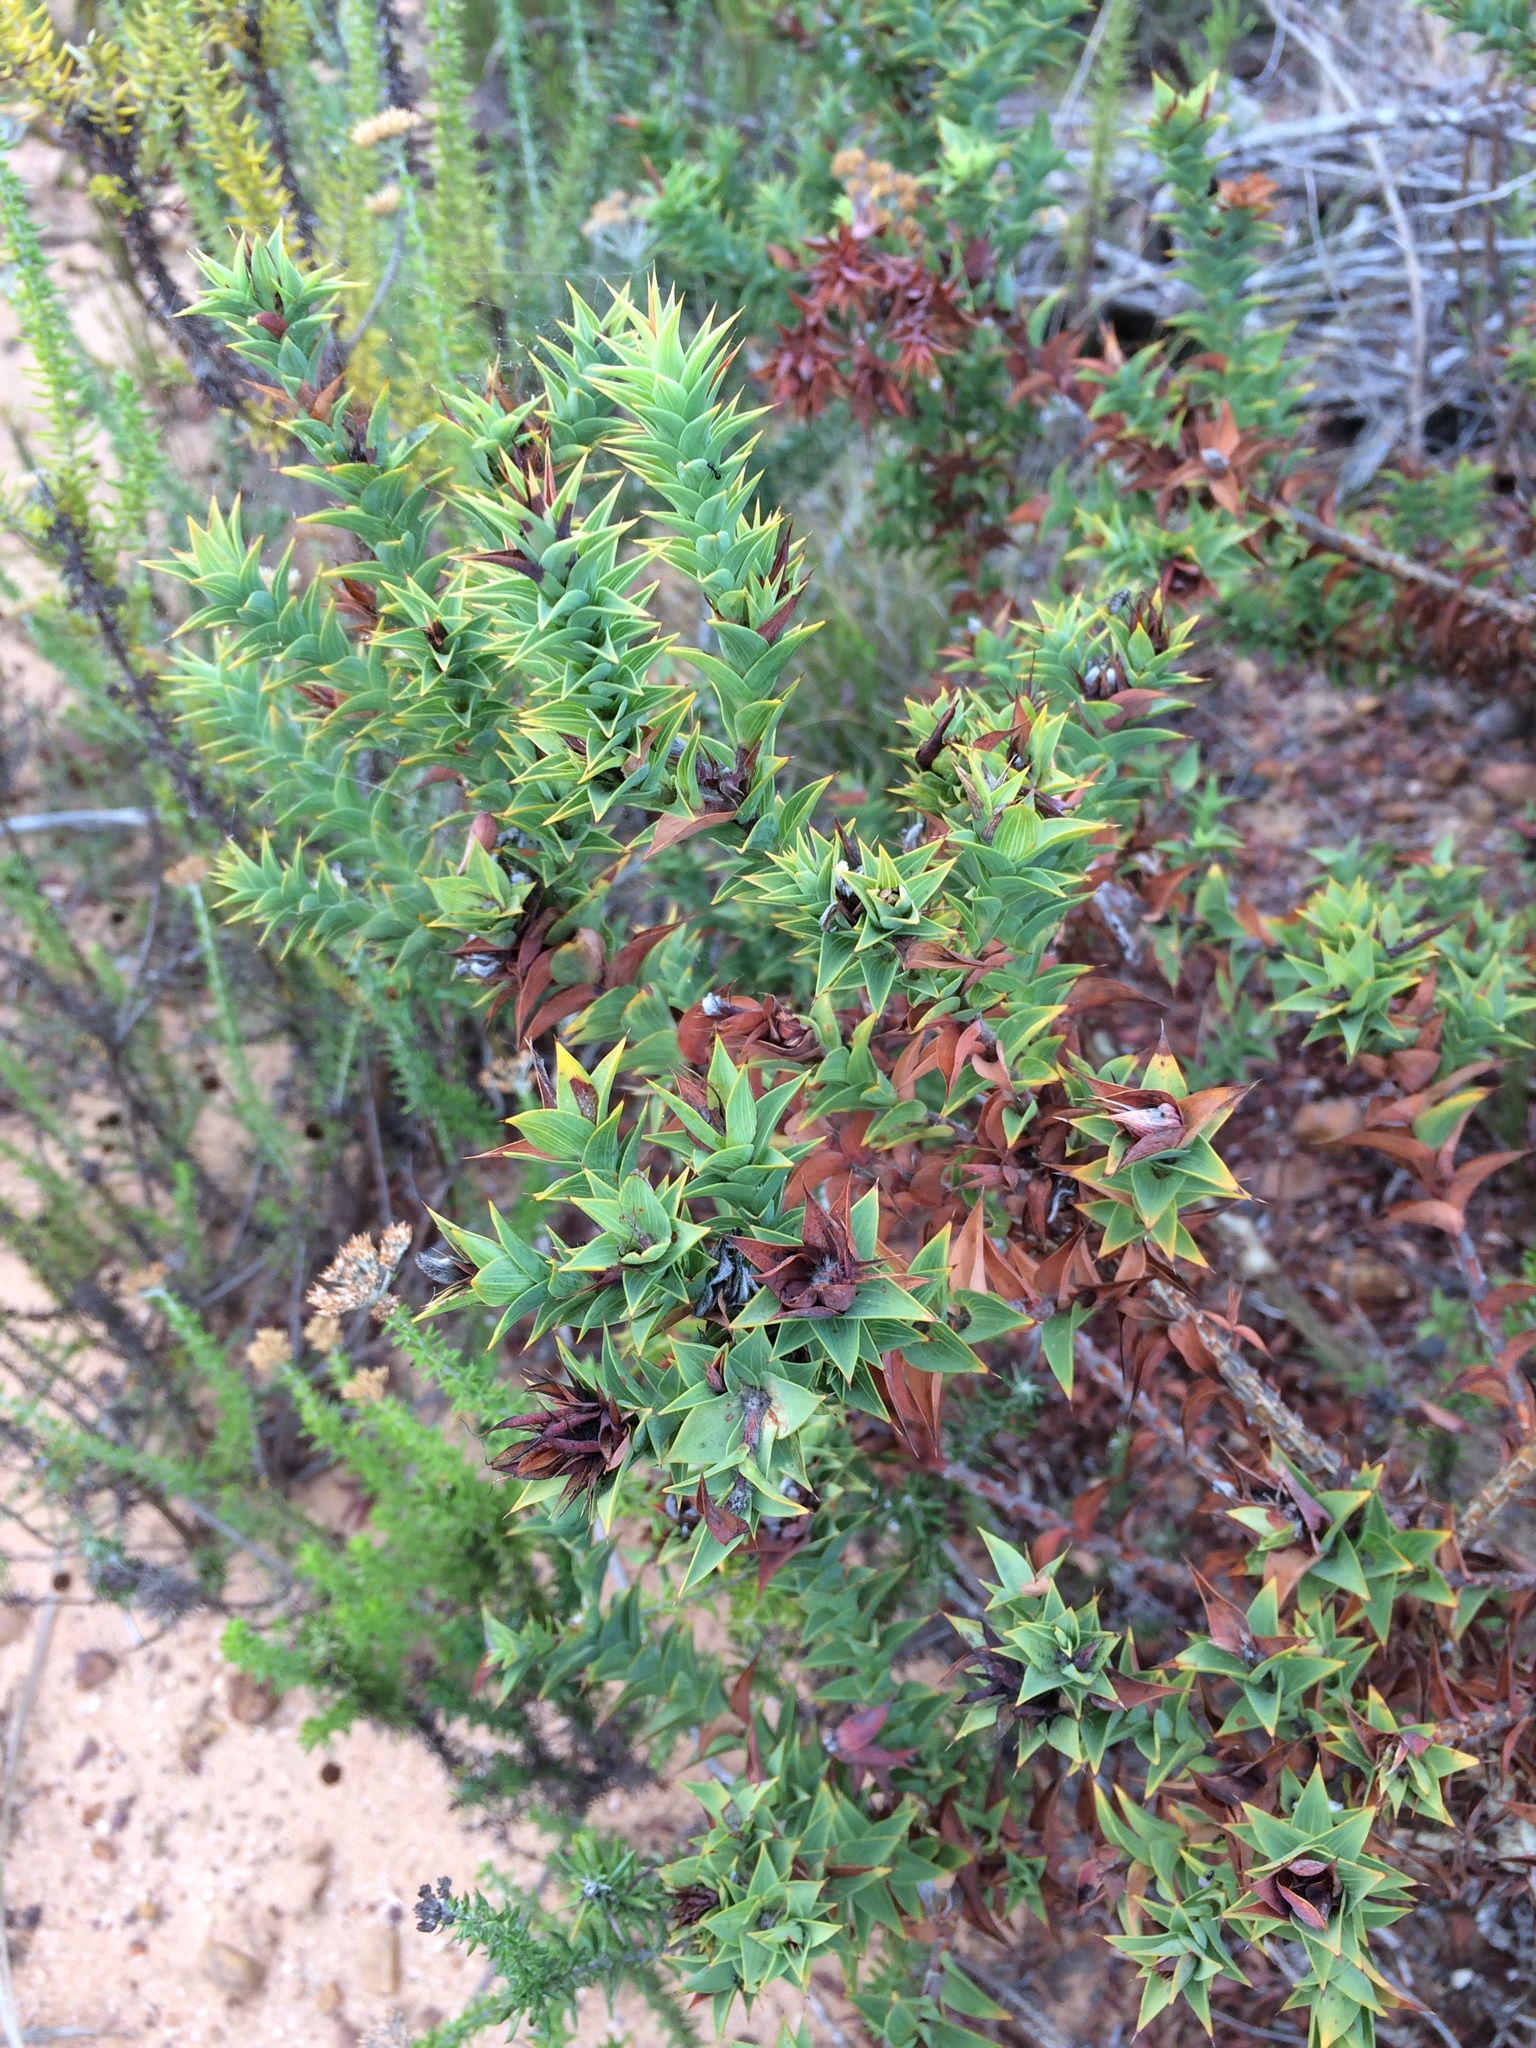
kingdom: Plantae
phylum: Tracheophyta
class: Magnoliopsida
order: Fabales
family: Fabaceae
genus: Aspalathus
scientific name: Aspalathus cordata
